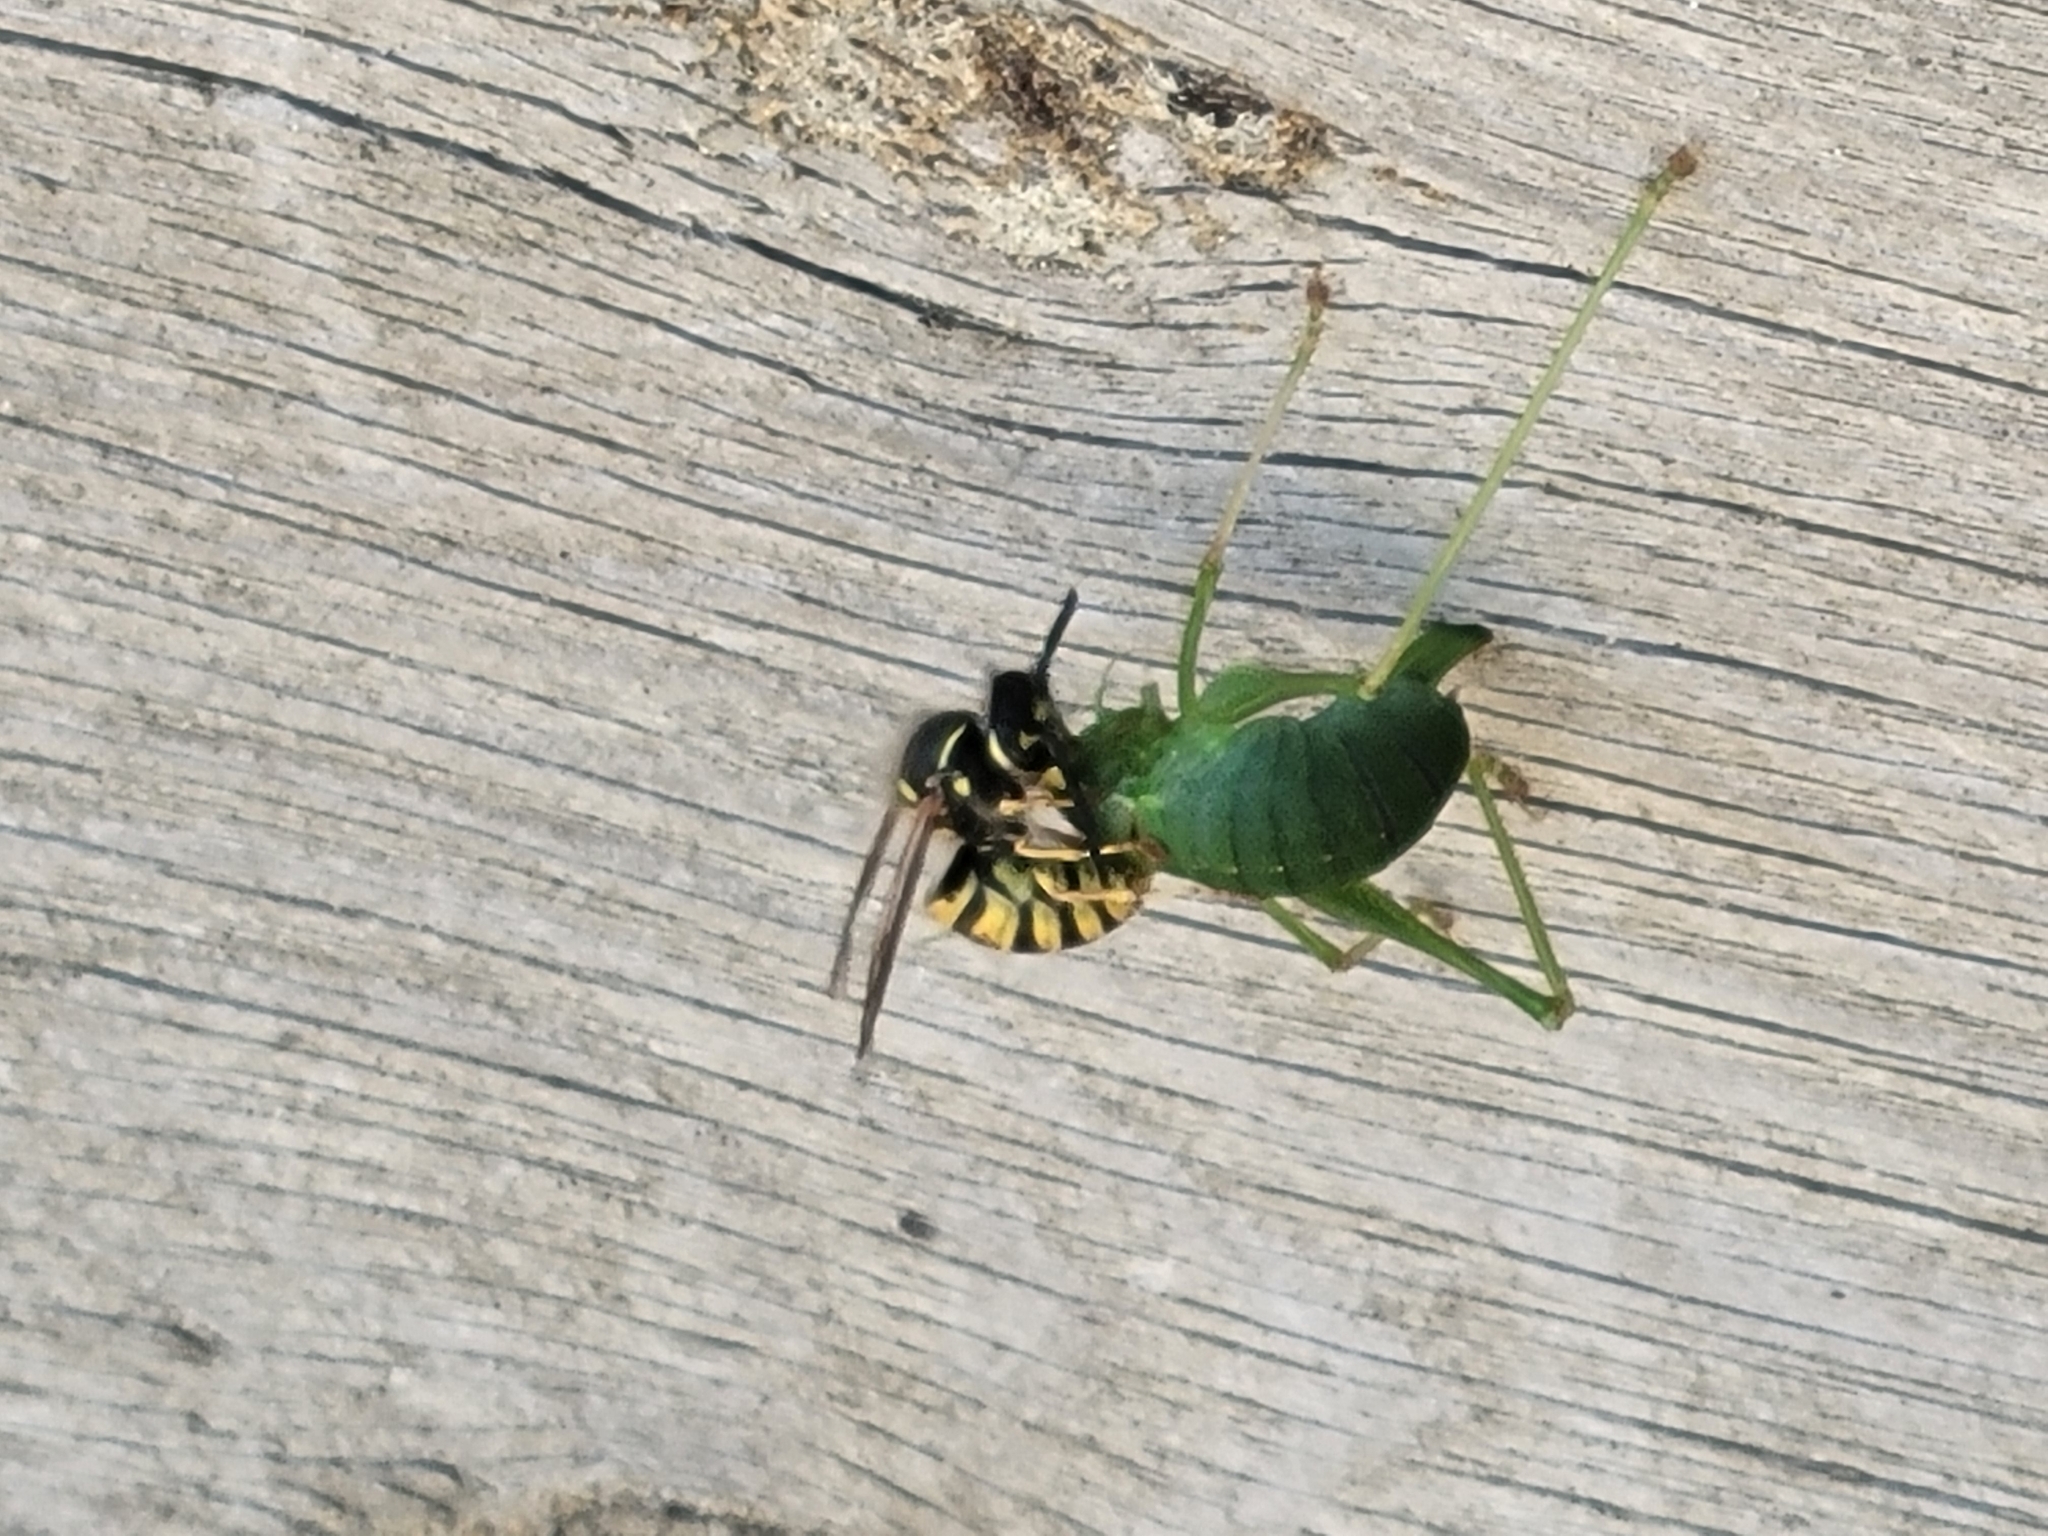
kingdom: Animalia
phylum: Arthropoda
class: Insecta
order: Orthoptera
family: Tettigoniidae
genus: Leptophyes
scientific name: Leptophyes punctatissima
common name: Speckled bush-cricket
